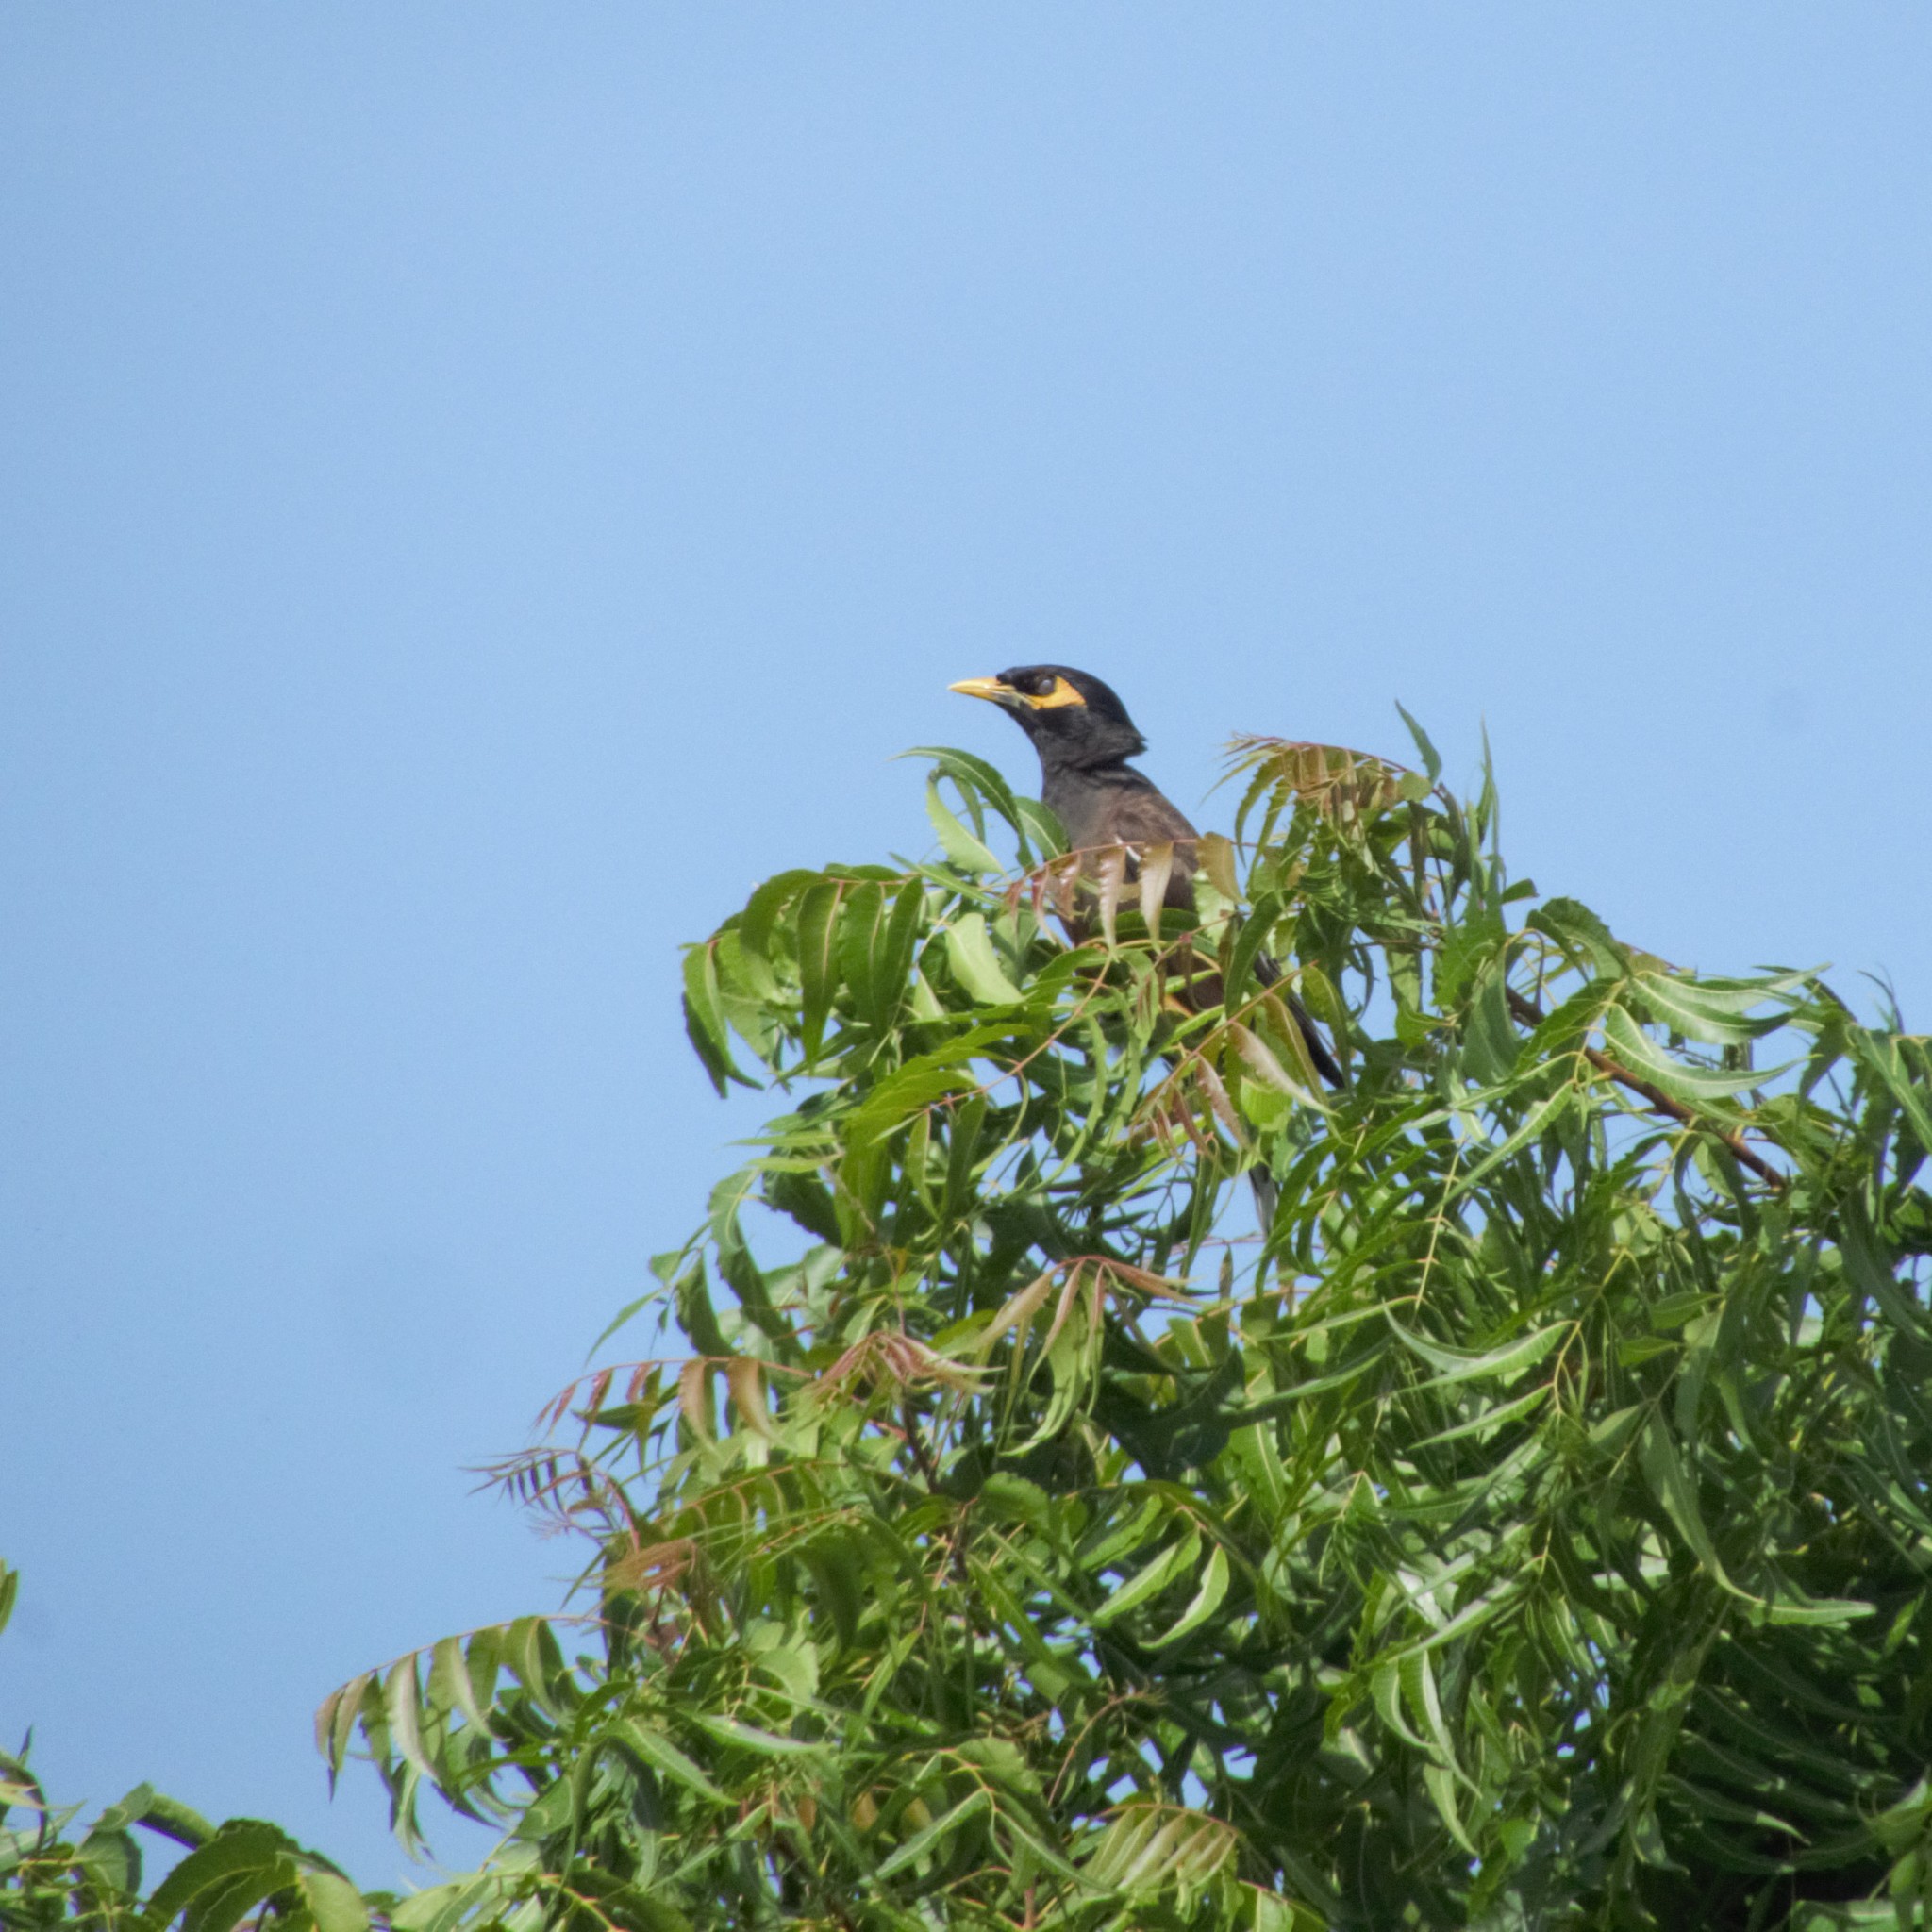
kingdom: Animalia
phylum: Chordata
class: Aves
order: Passeriformes
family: Sturnidae
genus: Acridotheres
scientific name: Acridotheres tristis
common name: Common myna
